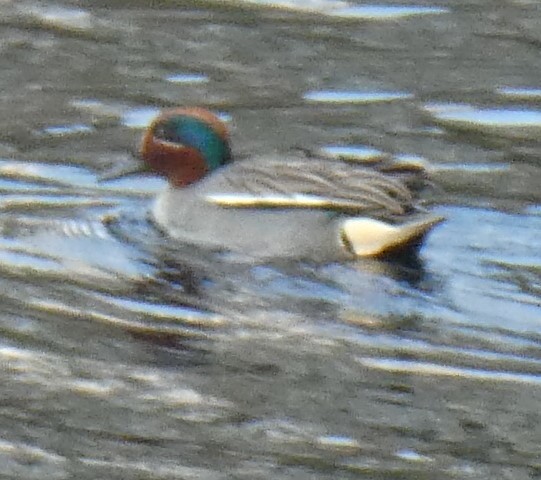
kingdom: Animalia
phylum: Chordata
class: Aves
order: Anseriformes
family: Anatidae
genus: Anas
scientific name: Anas crecca
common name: Eurasian teal
